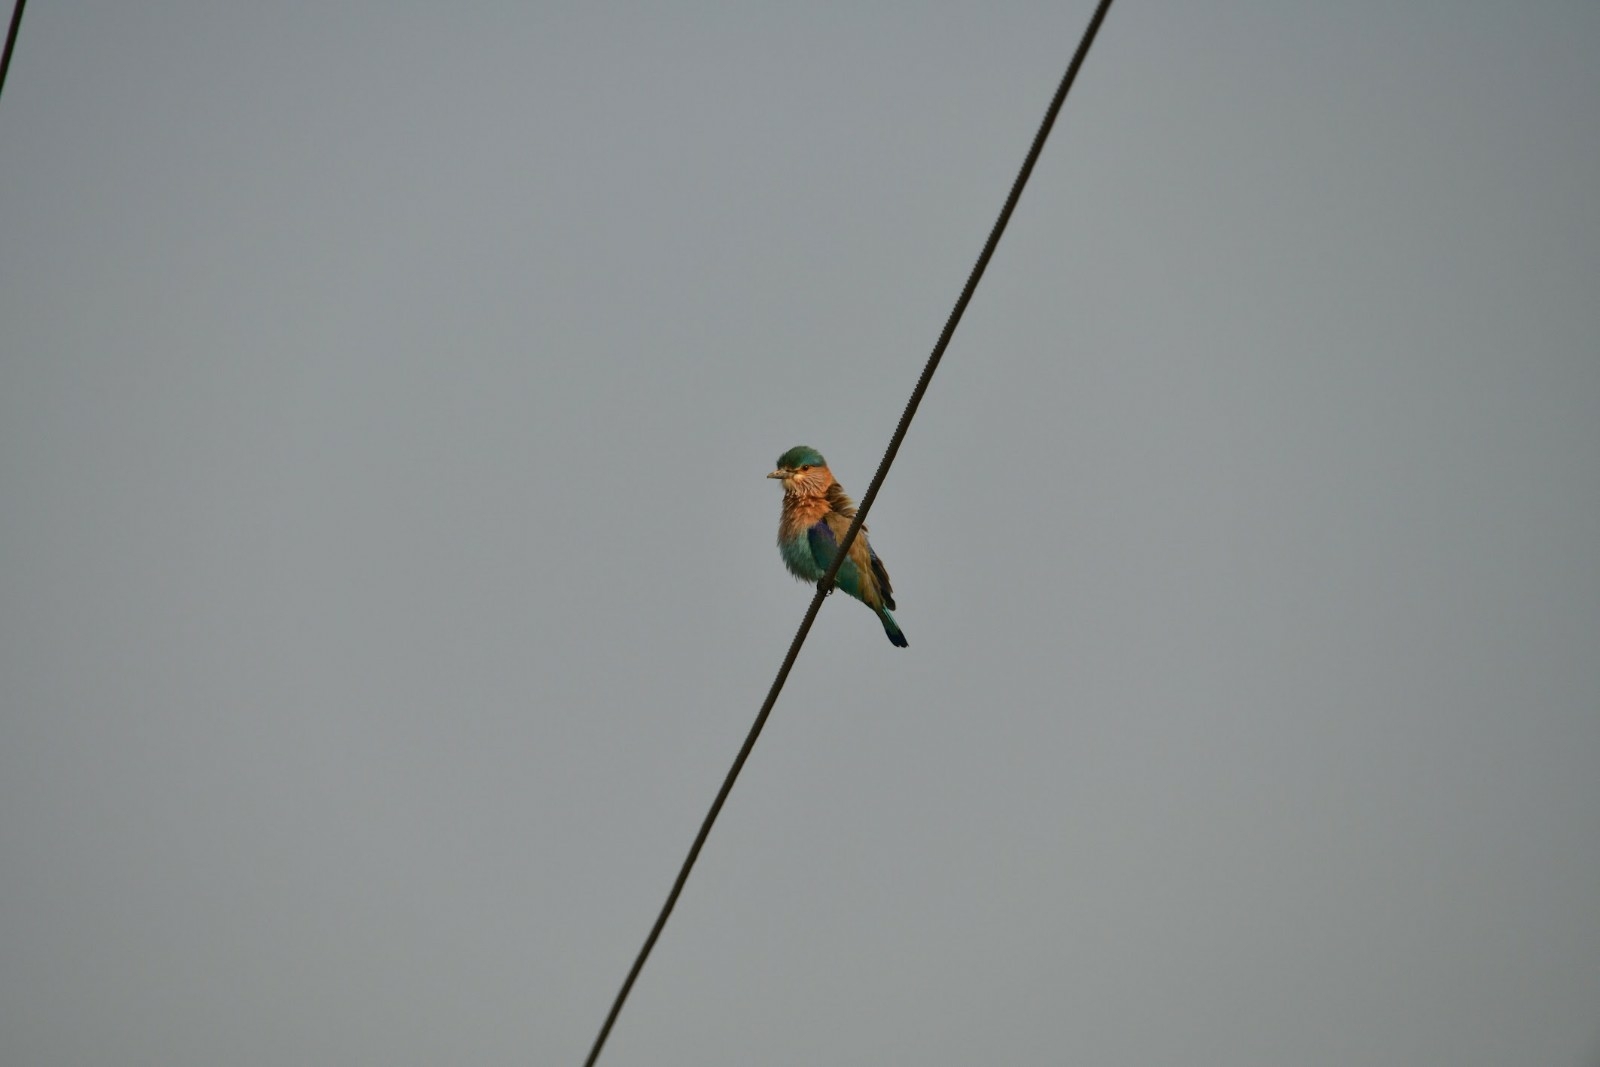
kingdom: Animalia
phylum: Chordata
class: Aves
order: Coraciiformes
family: Coraciidae
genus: Coracias
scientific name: Coracias benghalensis
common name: Indian roller
